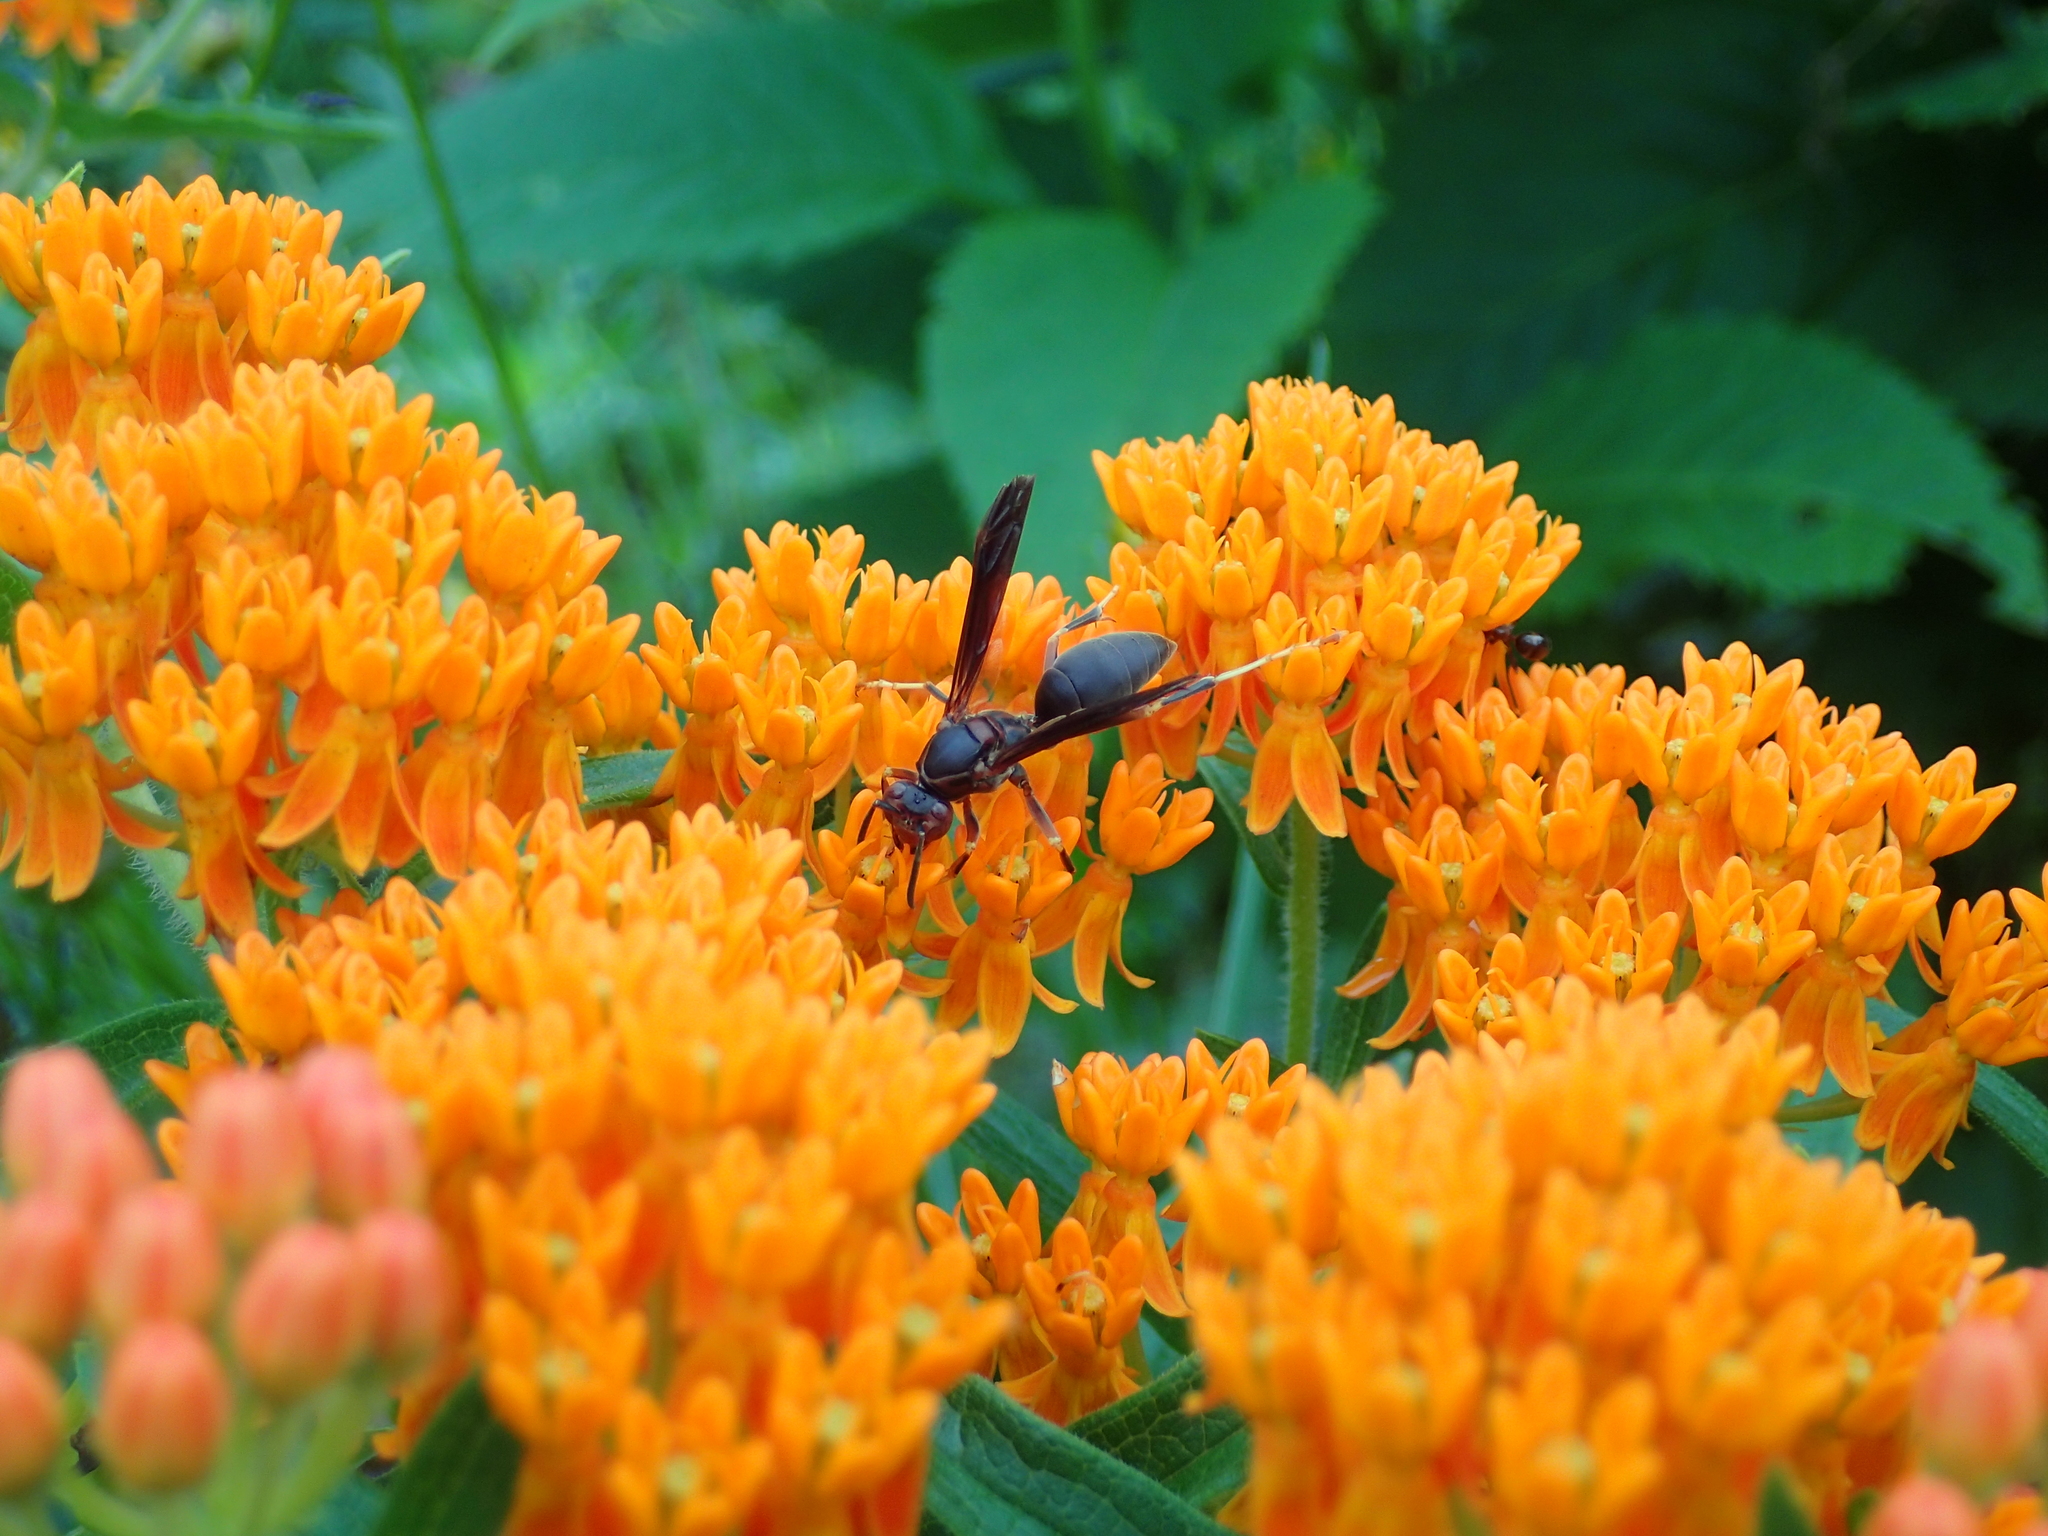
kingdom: Animalia
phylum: Arthropoda
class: Insecta
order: Hymenoptera
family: Eumenidae
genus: Polistes
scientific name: Polistes metricus
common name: Metric paper wasp
